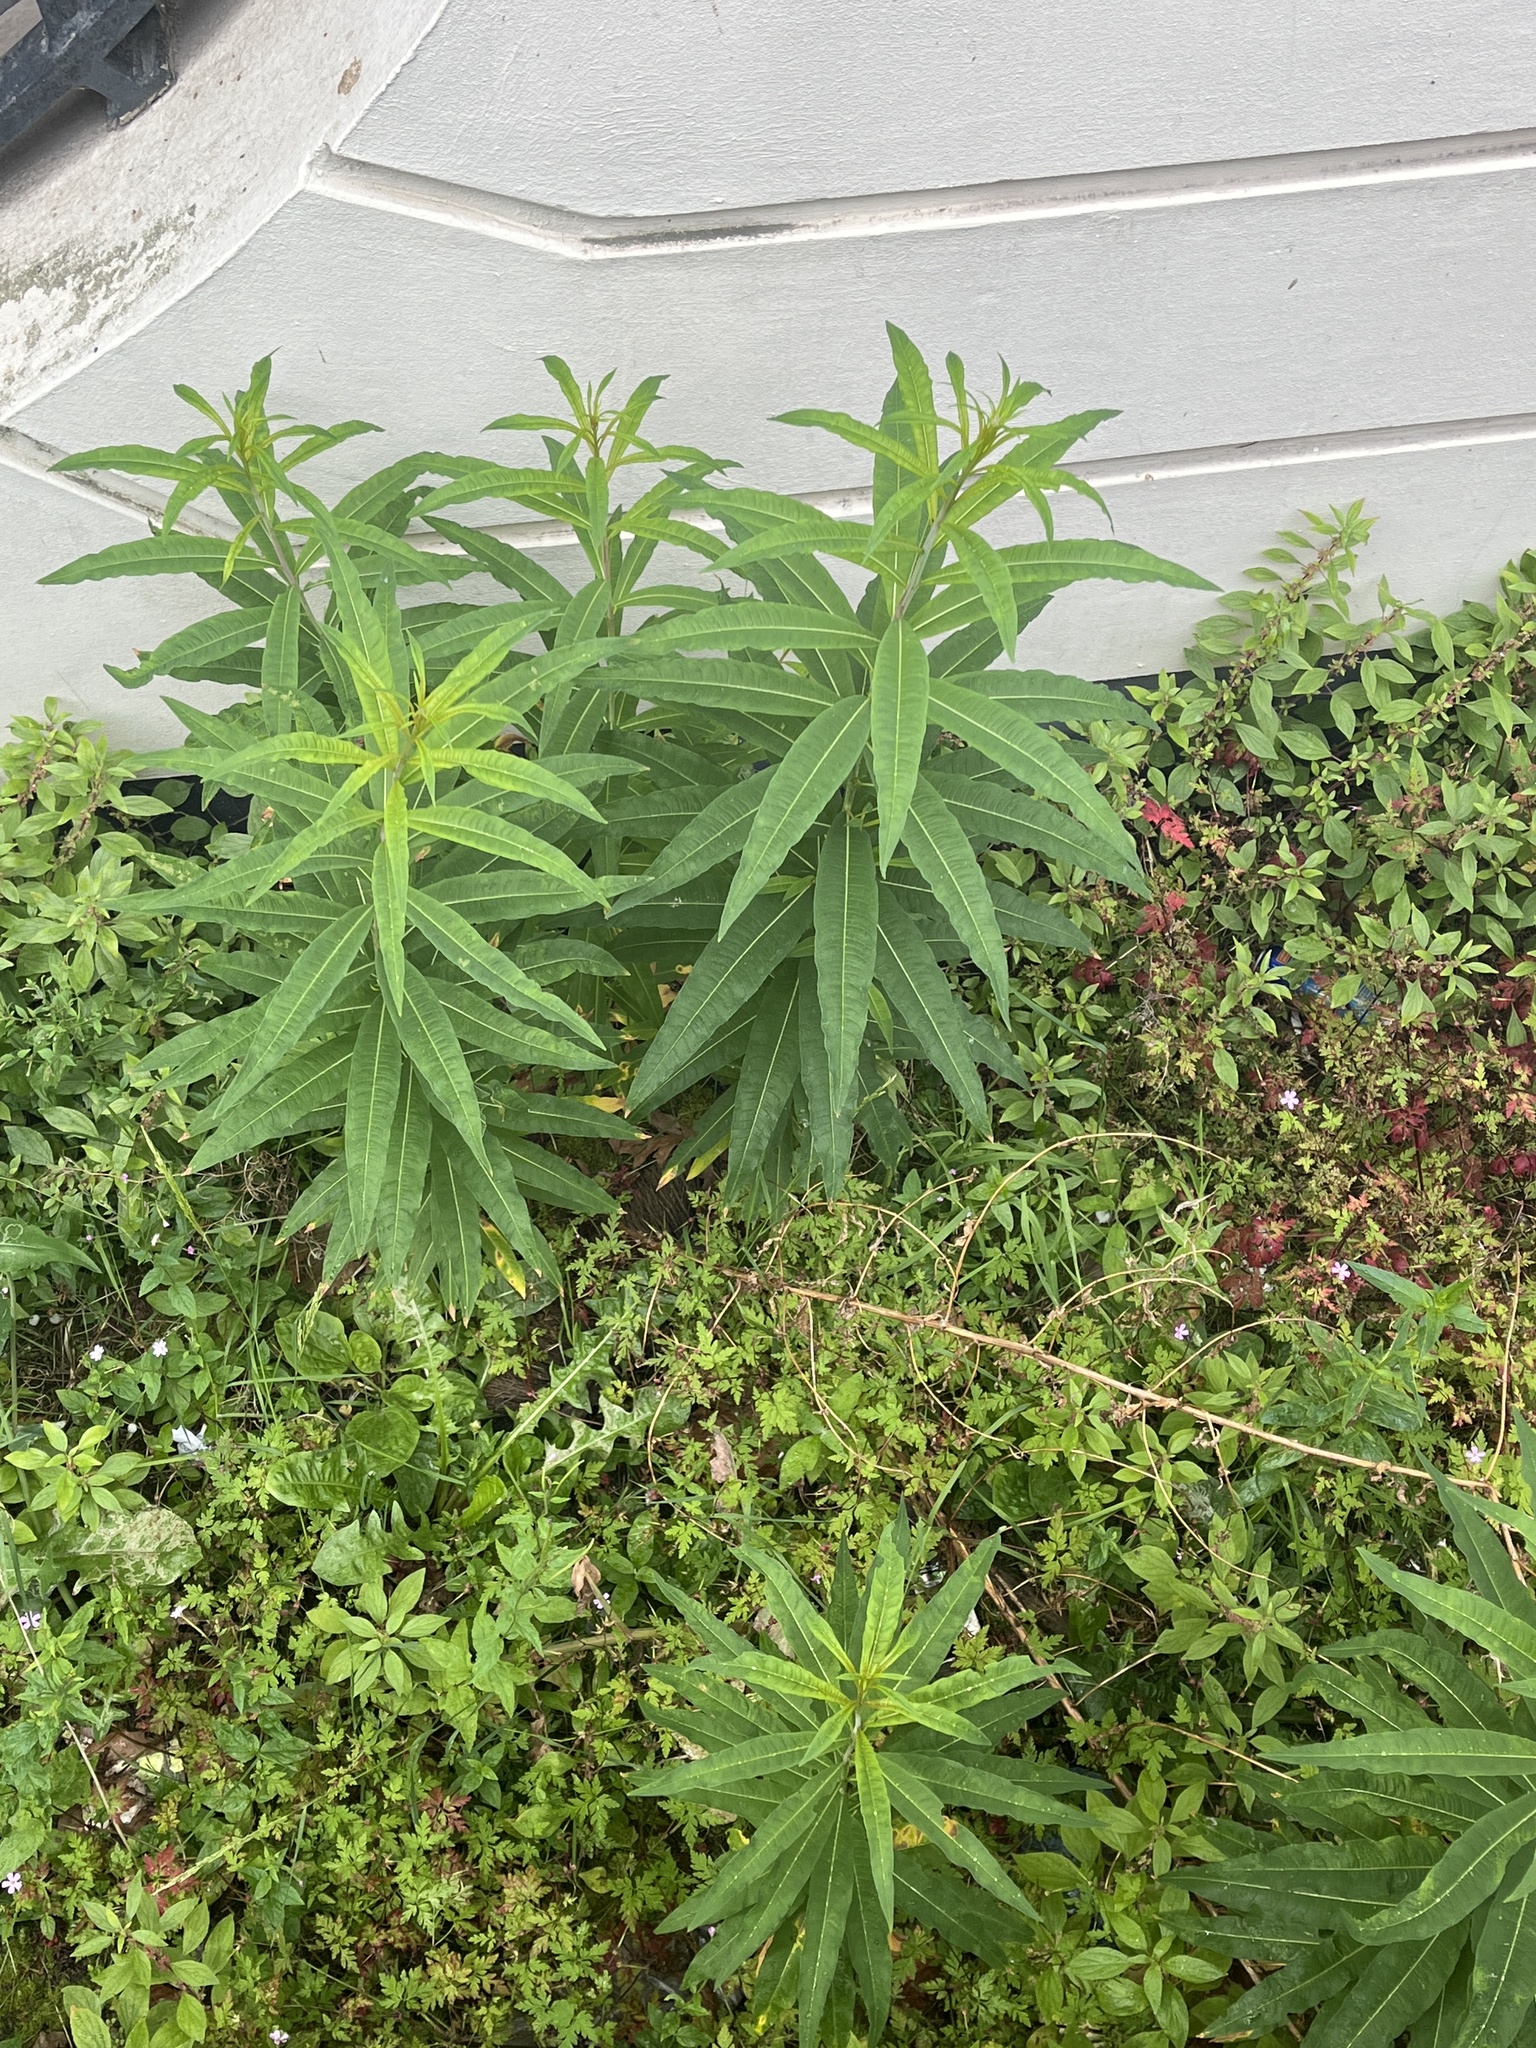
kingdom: Plantae
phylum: Tracheophyta
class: Magnoliopsida
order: Myrtales
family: Onagraceae
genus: Chamaenerion
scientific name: Chamaenerion angustifolium
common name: Fireweed
